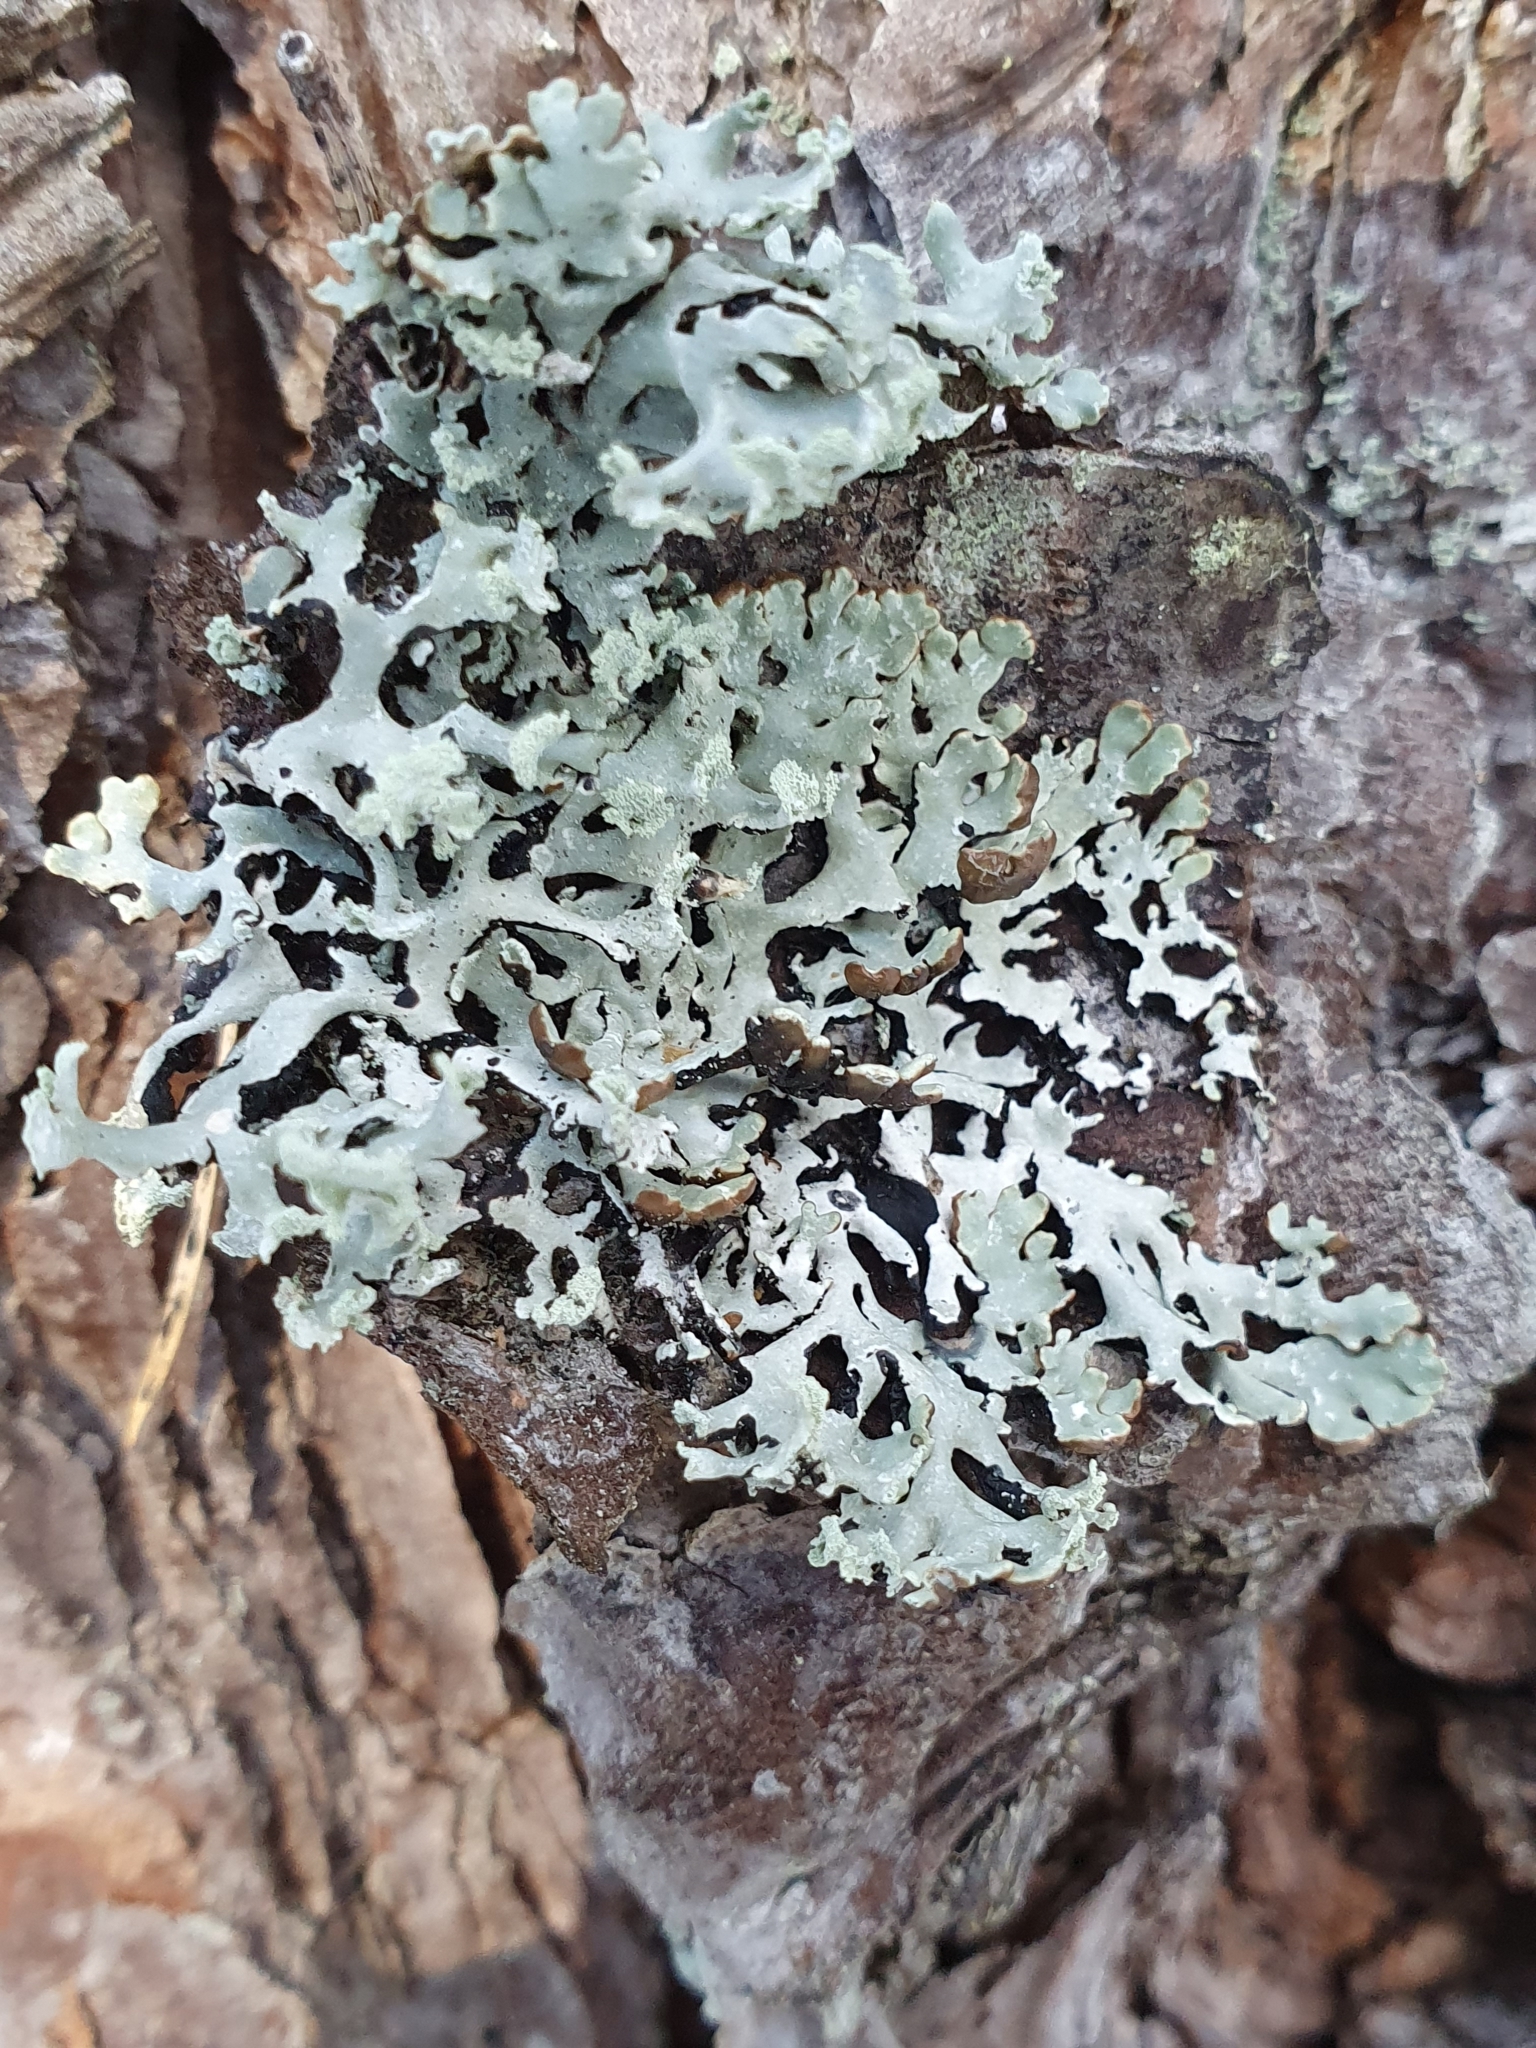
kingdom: Fungi
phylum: Ascomycota
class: Lecanoromycetes
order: Lecanorales
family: Parmeliaceae
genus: Hypogymnia
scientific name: Hypogymnia physodes
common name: Dark crottle
